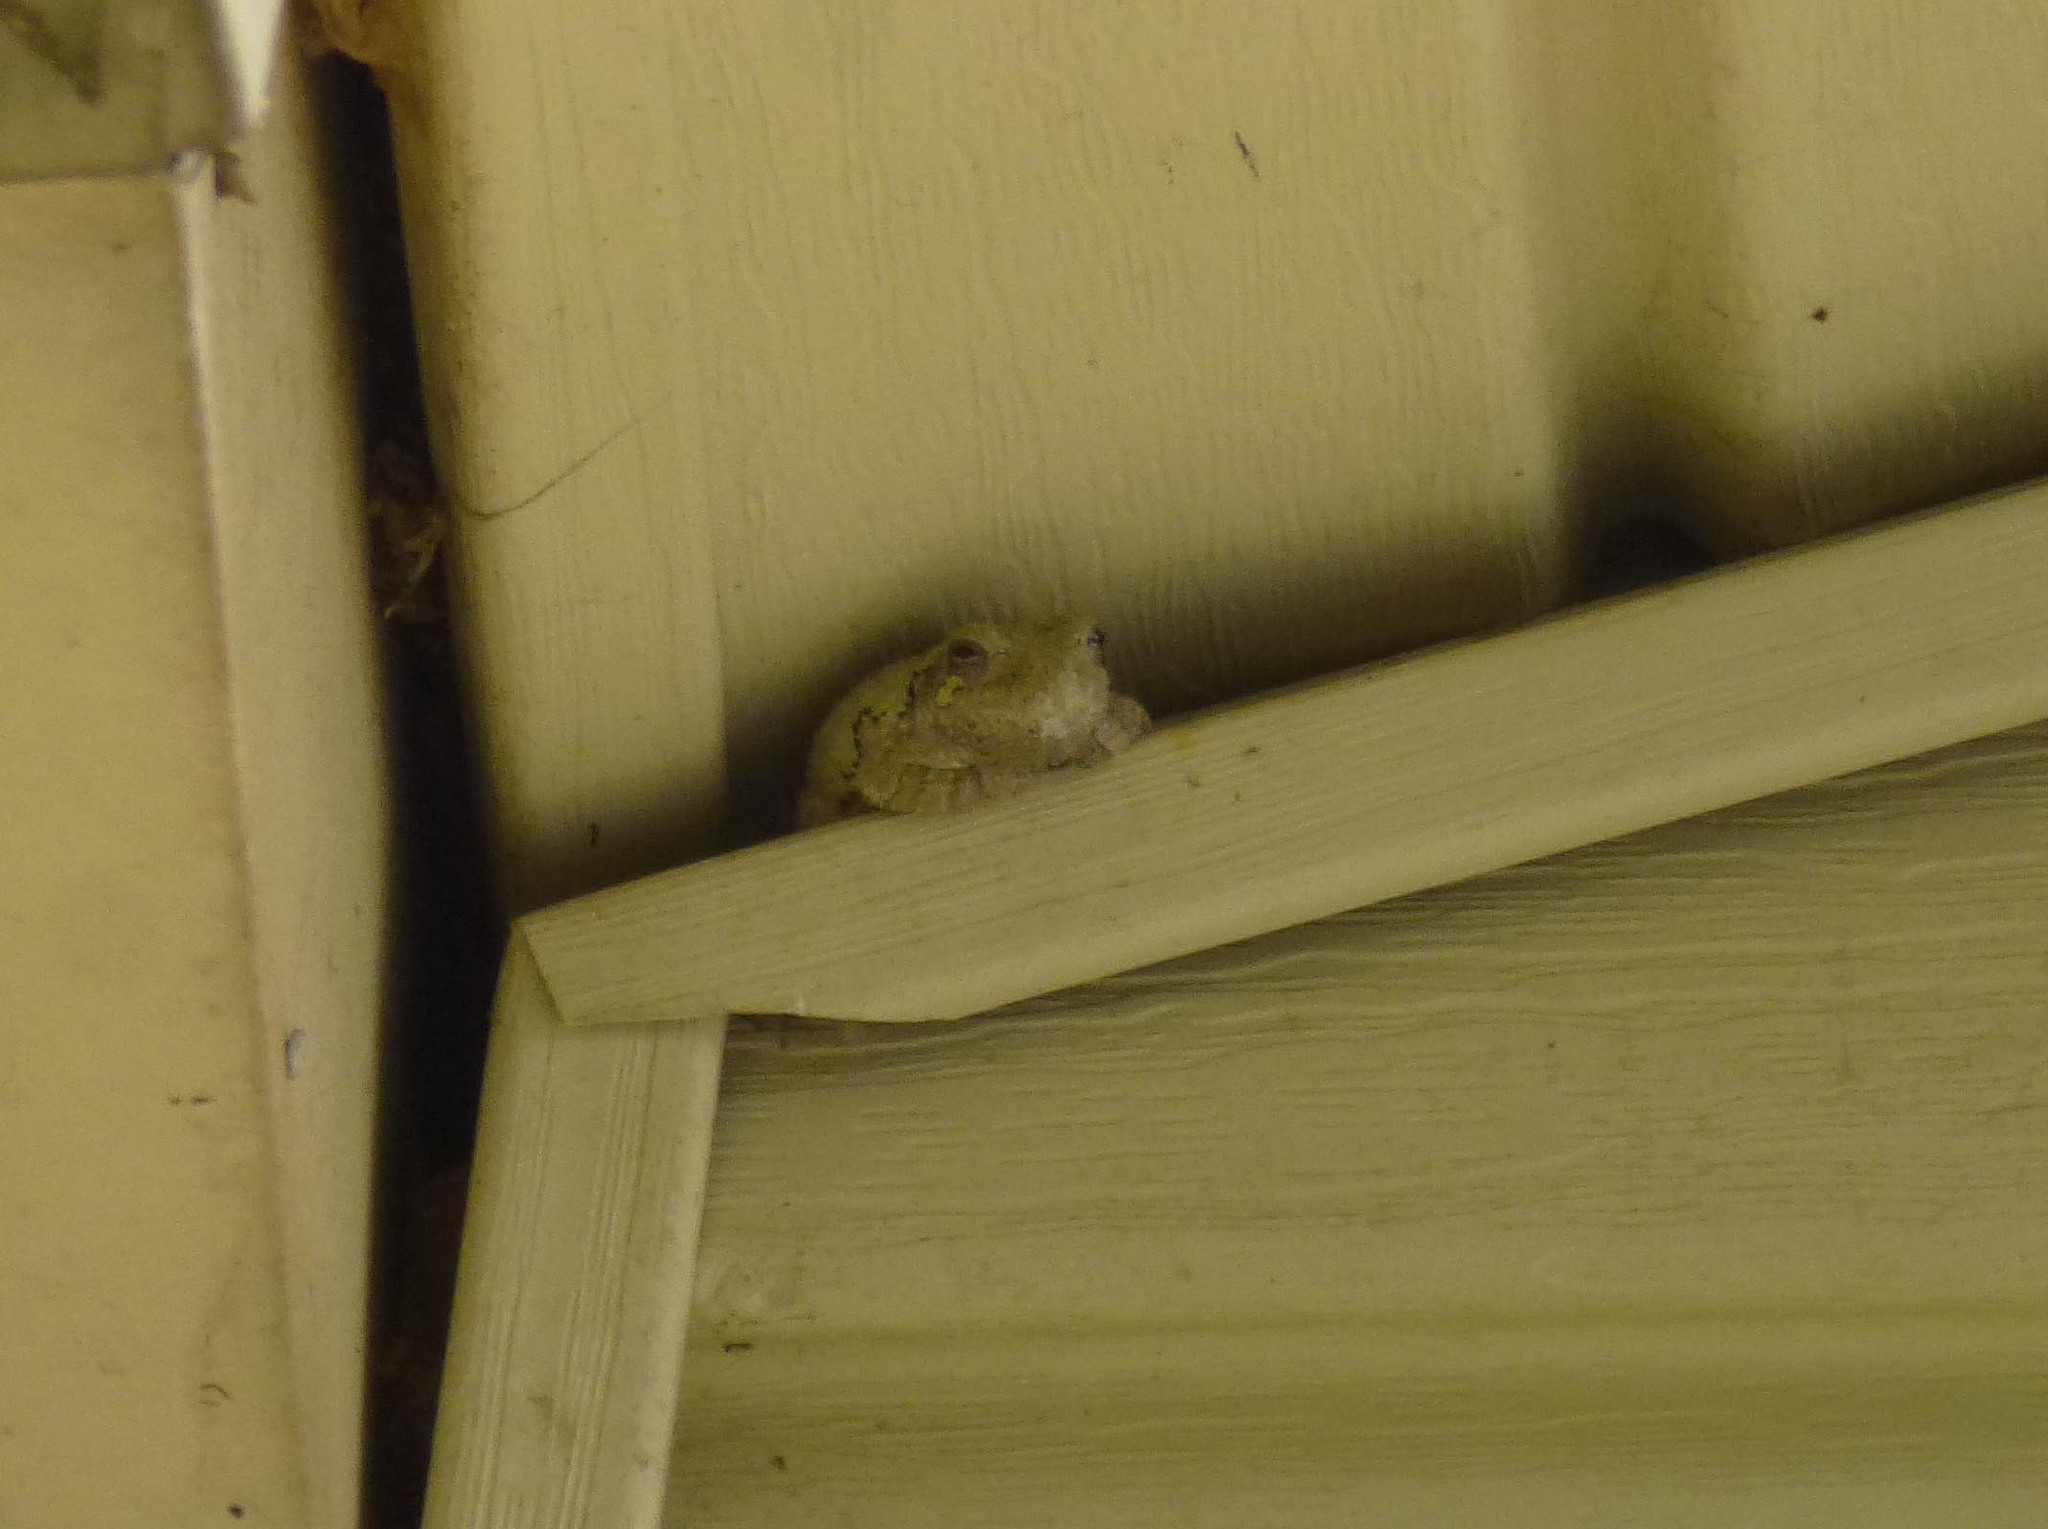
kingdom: Animalia
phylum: Chordata
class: Amphibia
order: Anura
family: Hylidae
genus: Dryophytes
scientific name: Dryophytes chrysoscelis
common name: Cope's gray treefrog
